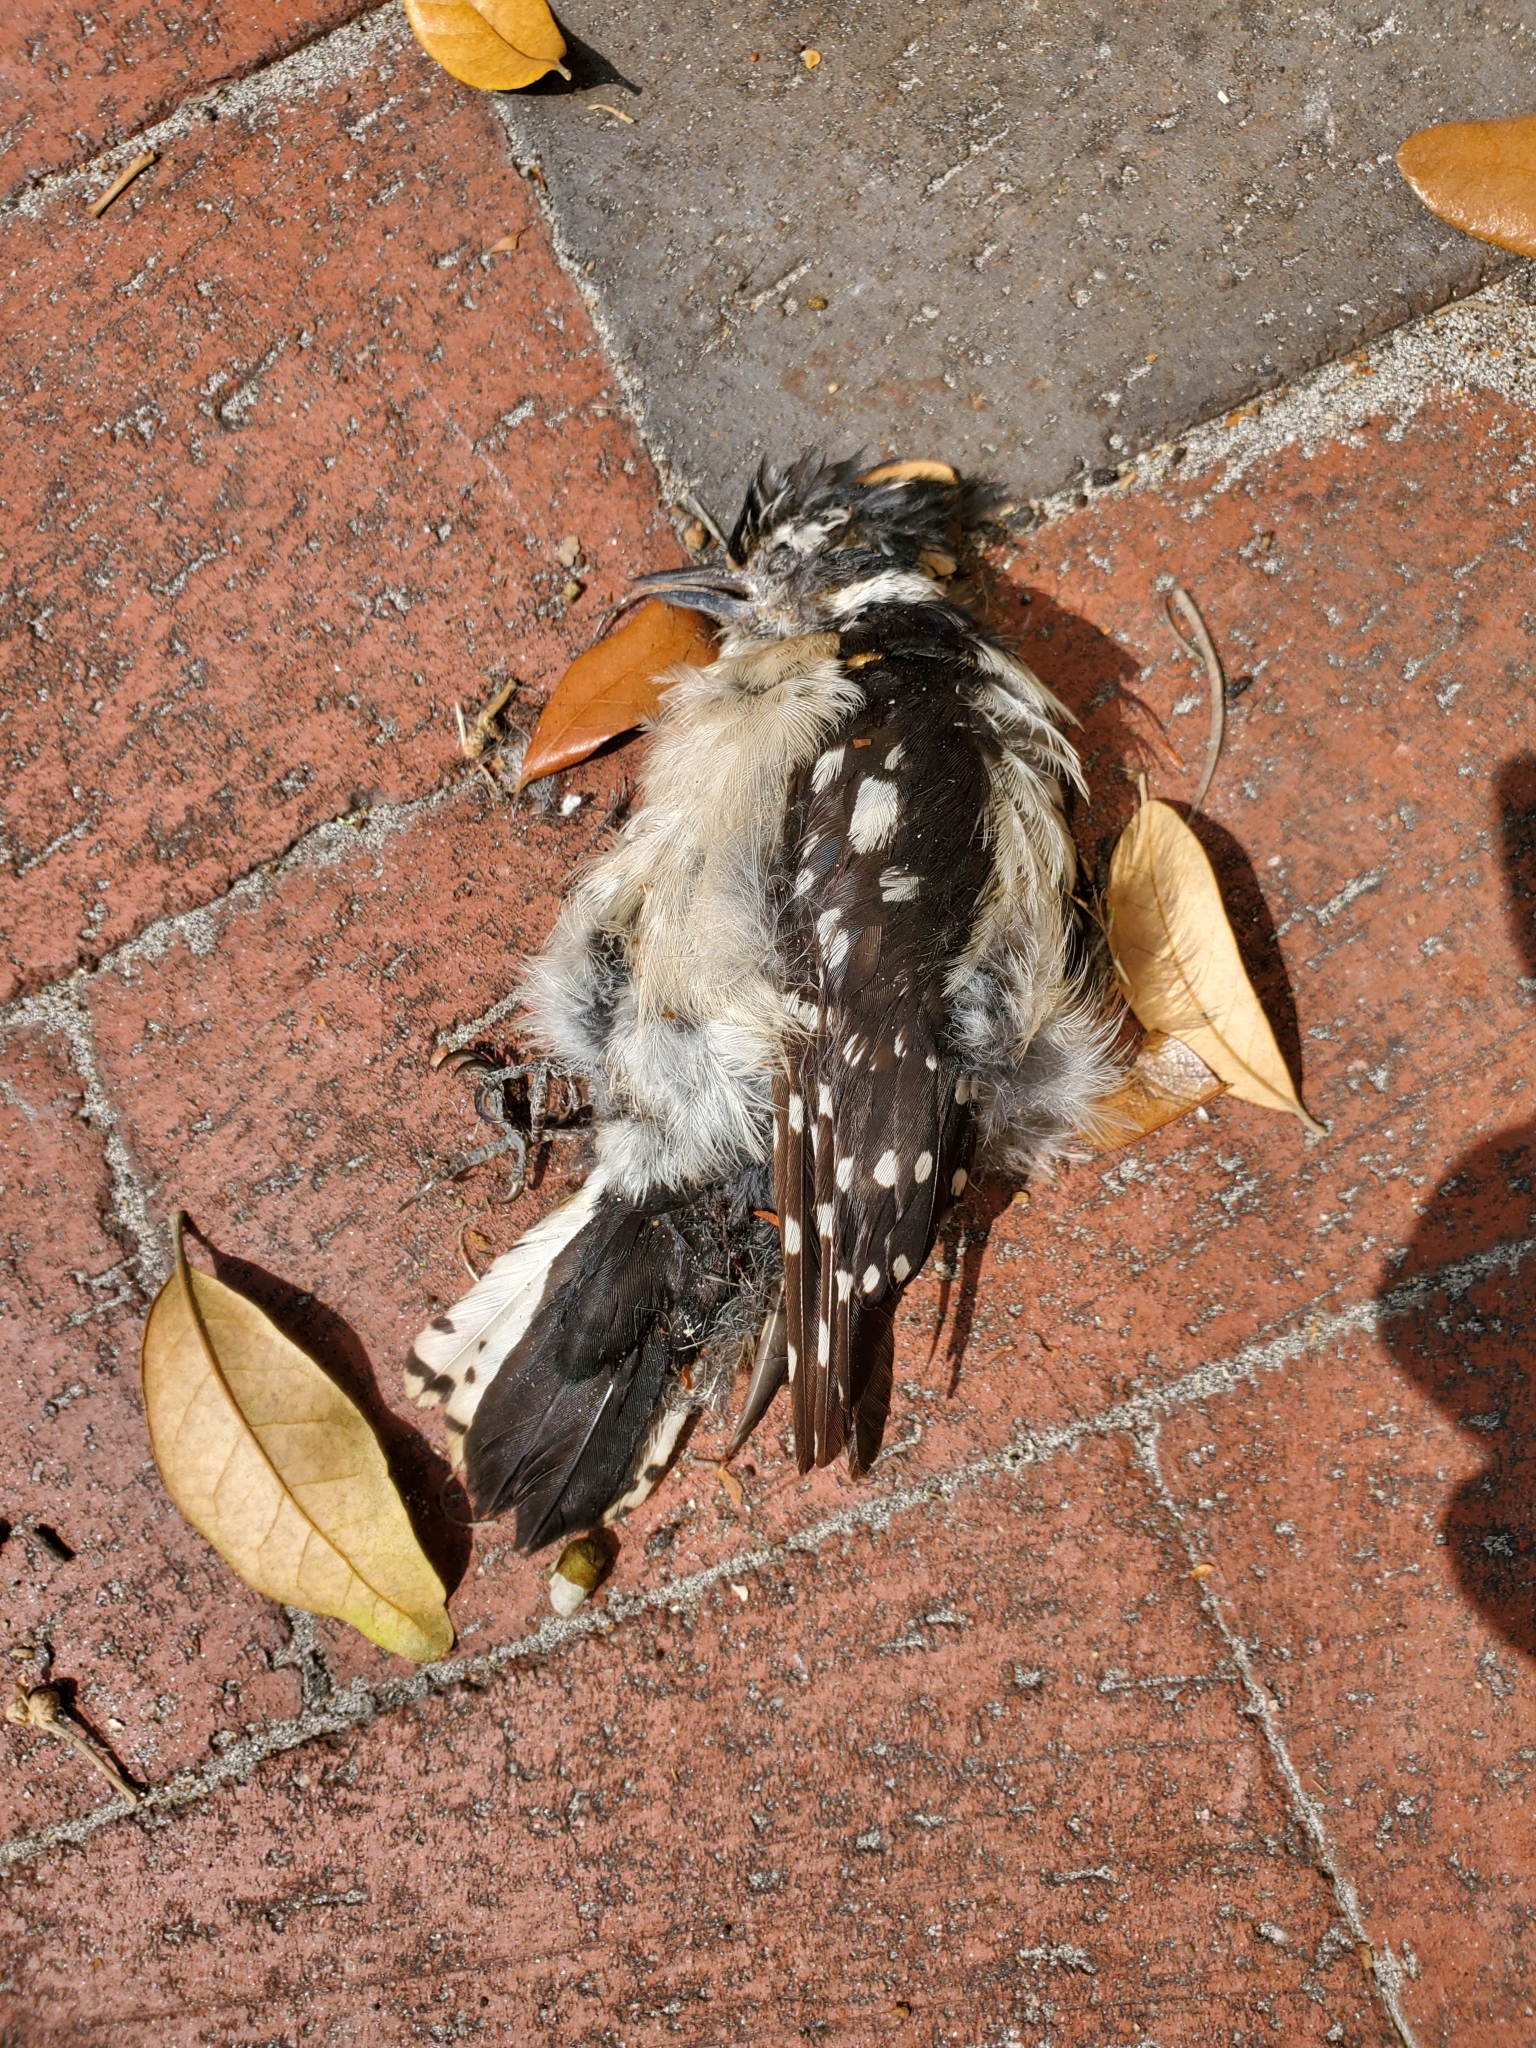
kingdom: Animalia
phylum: Chordata
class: Aves
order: Piciformes
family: Picidae
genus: Dryobates
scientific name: Dryobates pubescens
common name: Downy woodpecker
